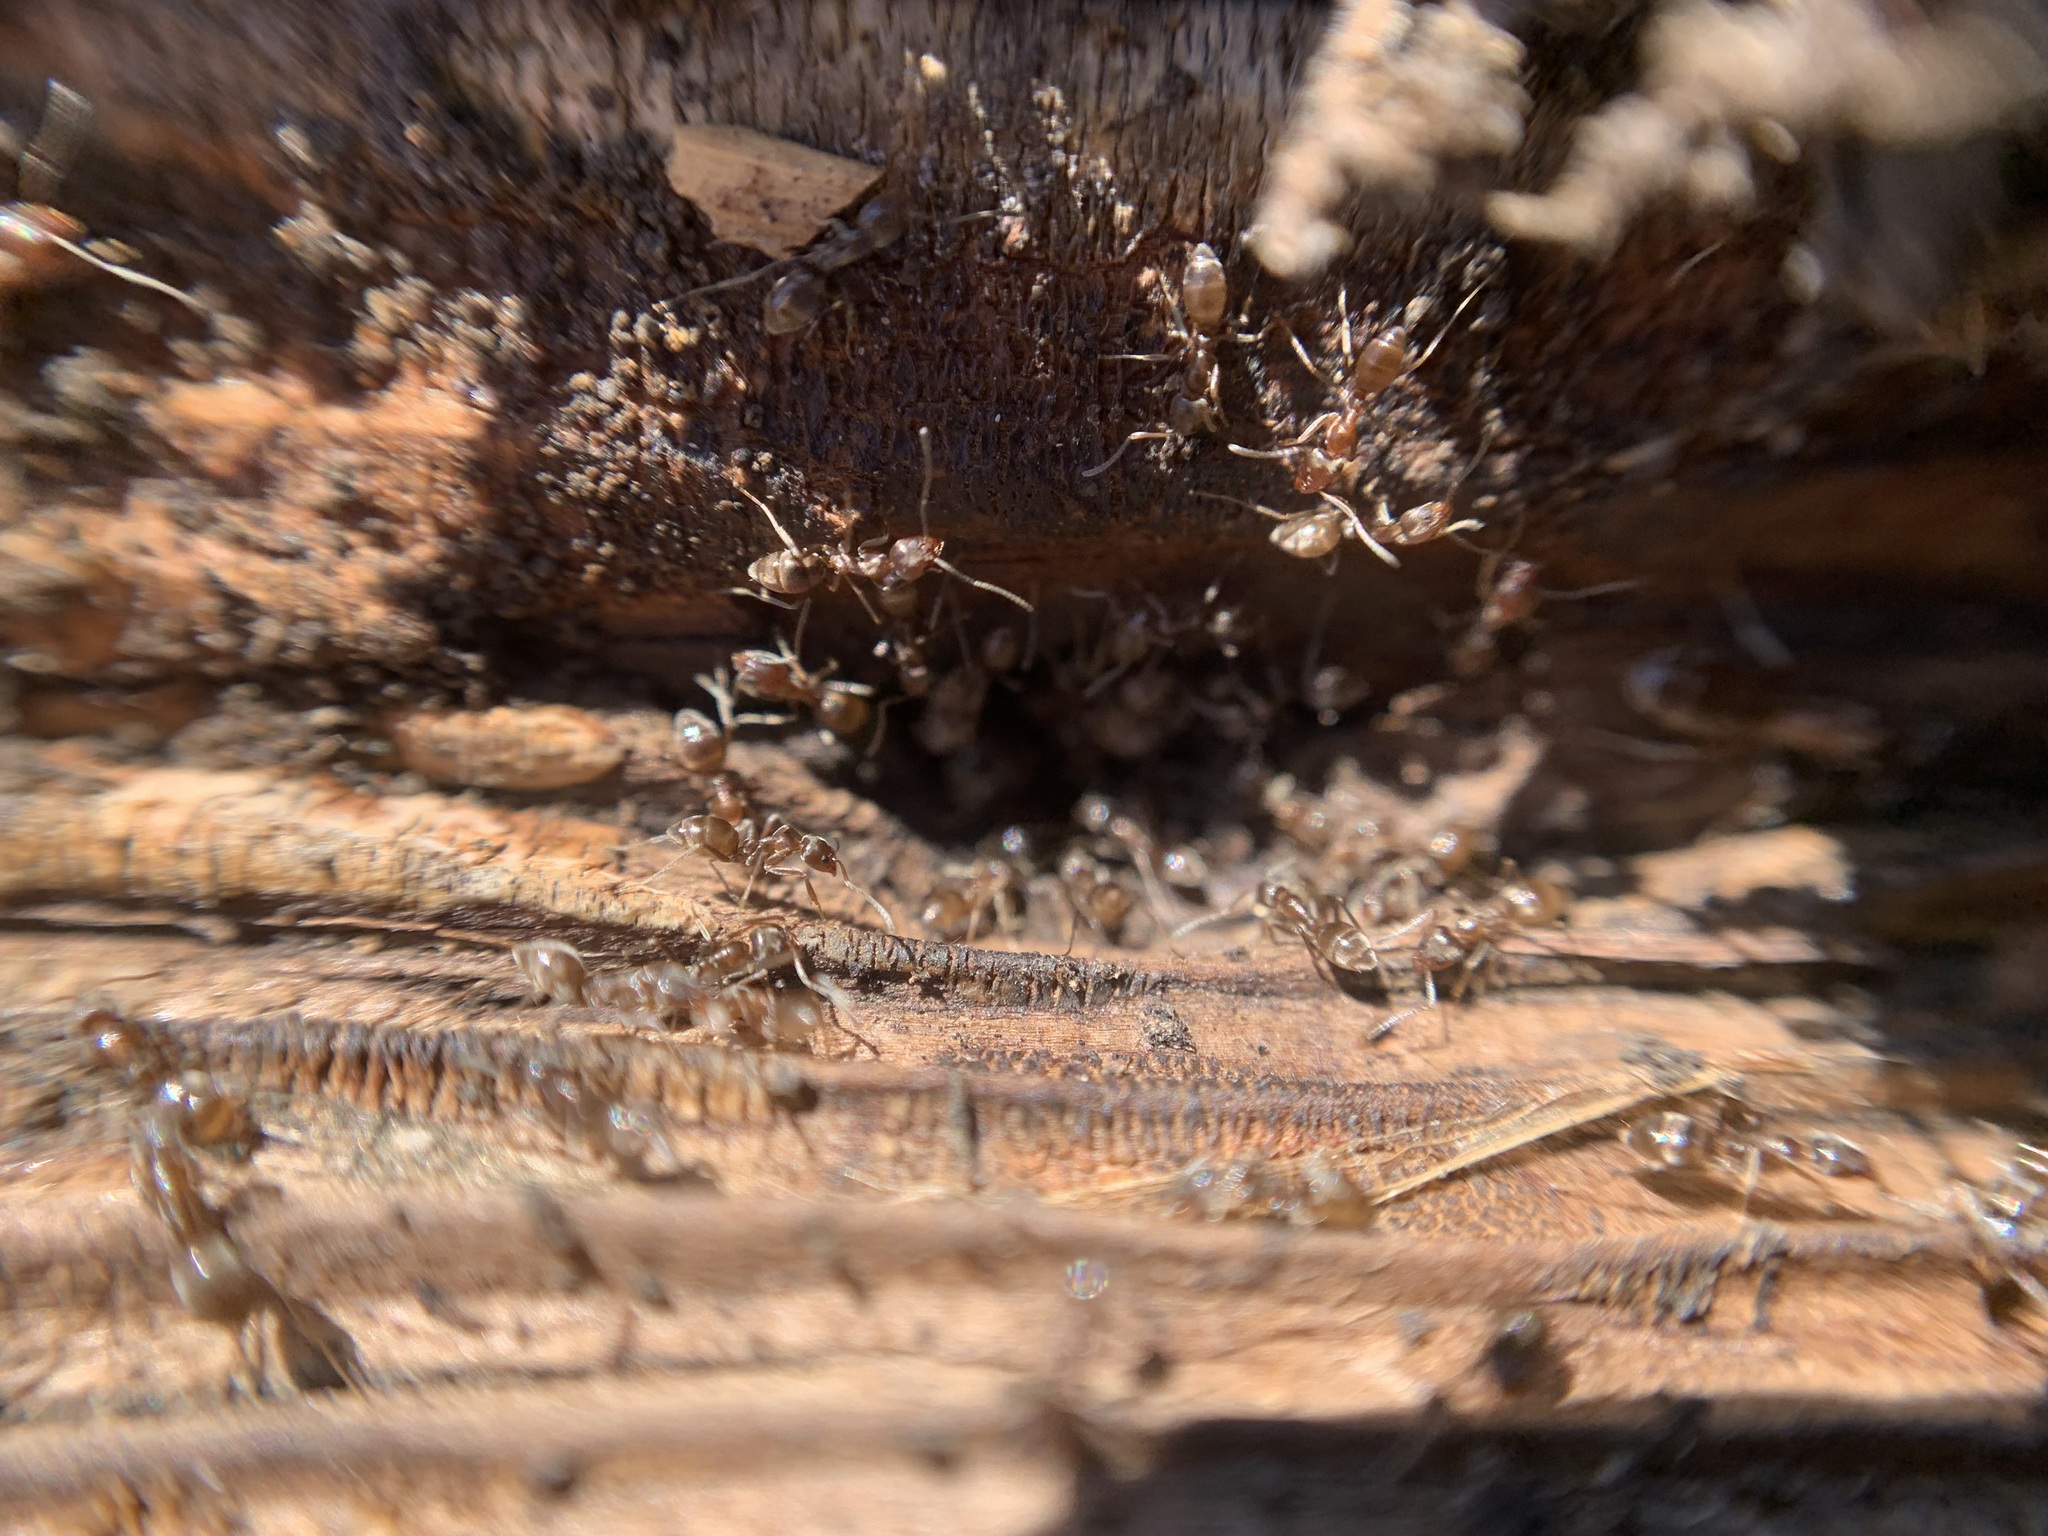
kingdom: Animalia
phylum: Arthropoda
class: Insecta
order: Hymenoptera
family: Formicidae
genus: Linepithema
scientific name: Linepithema humile
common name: Argentine ant
